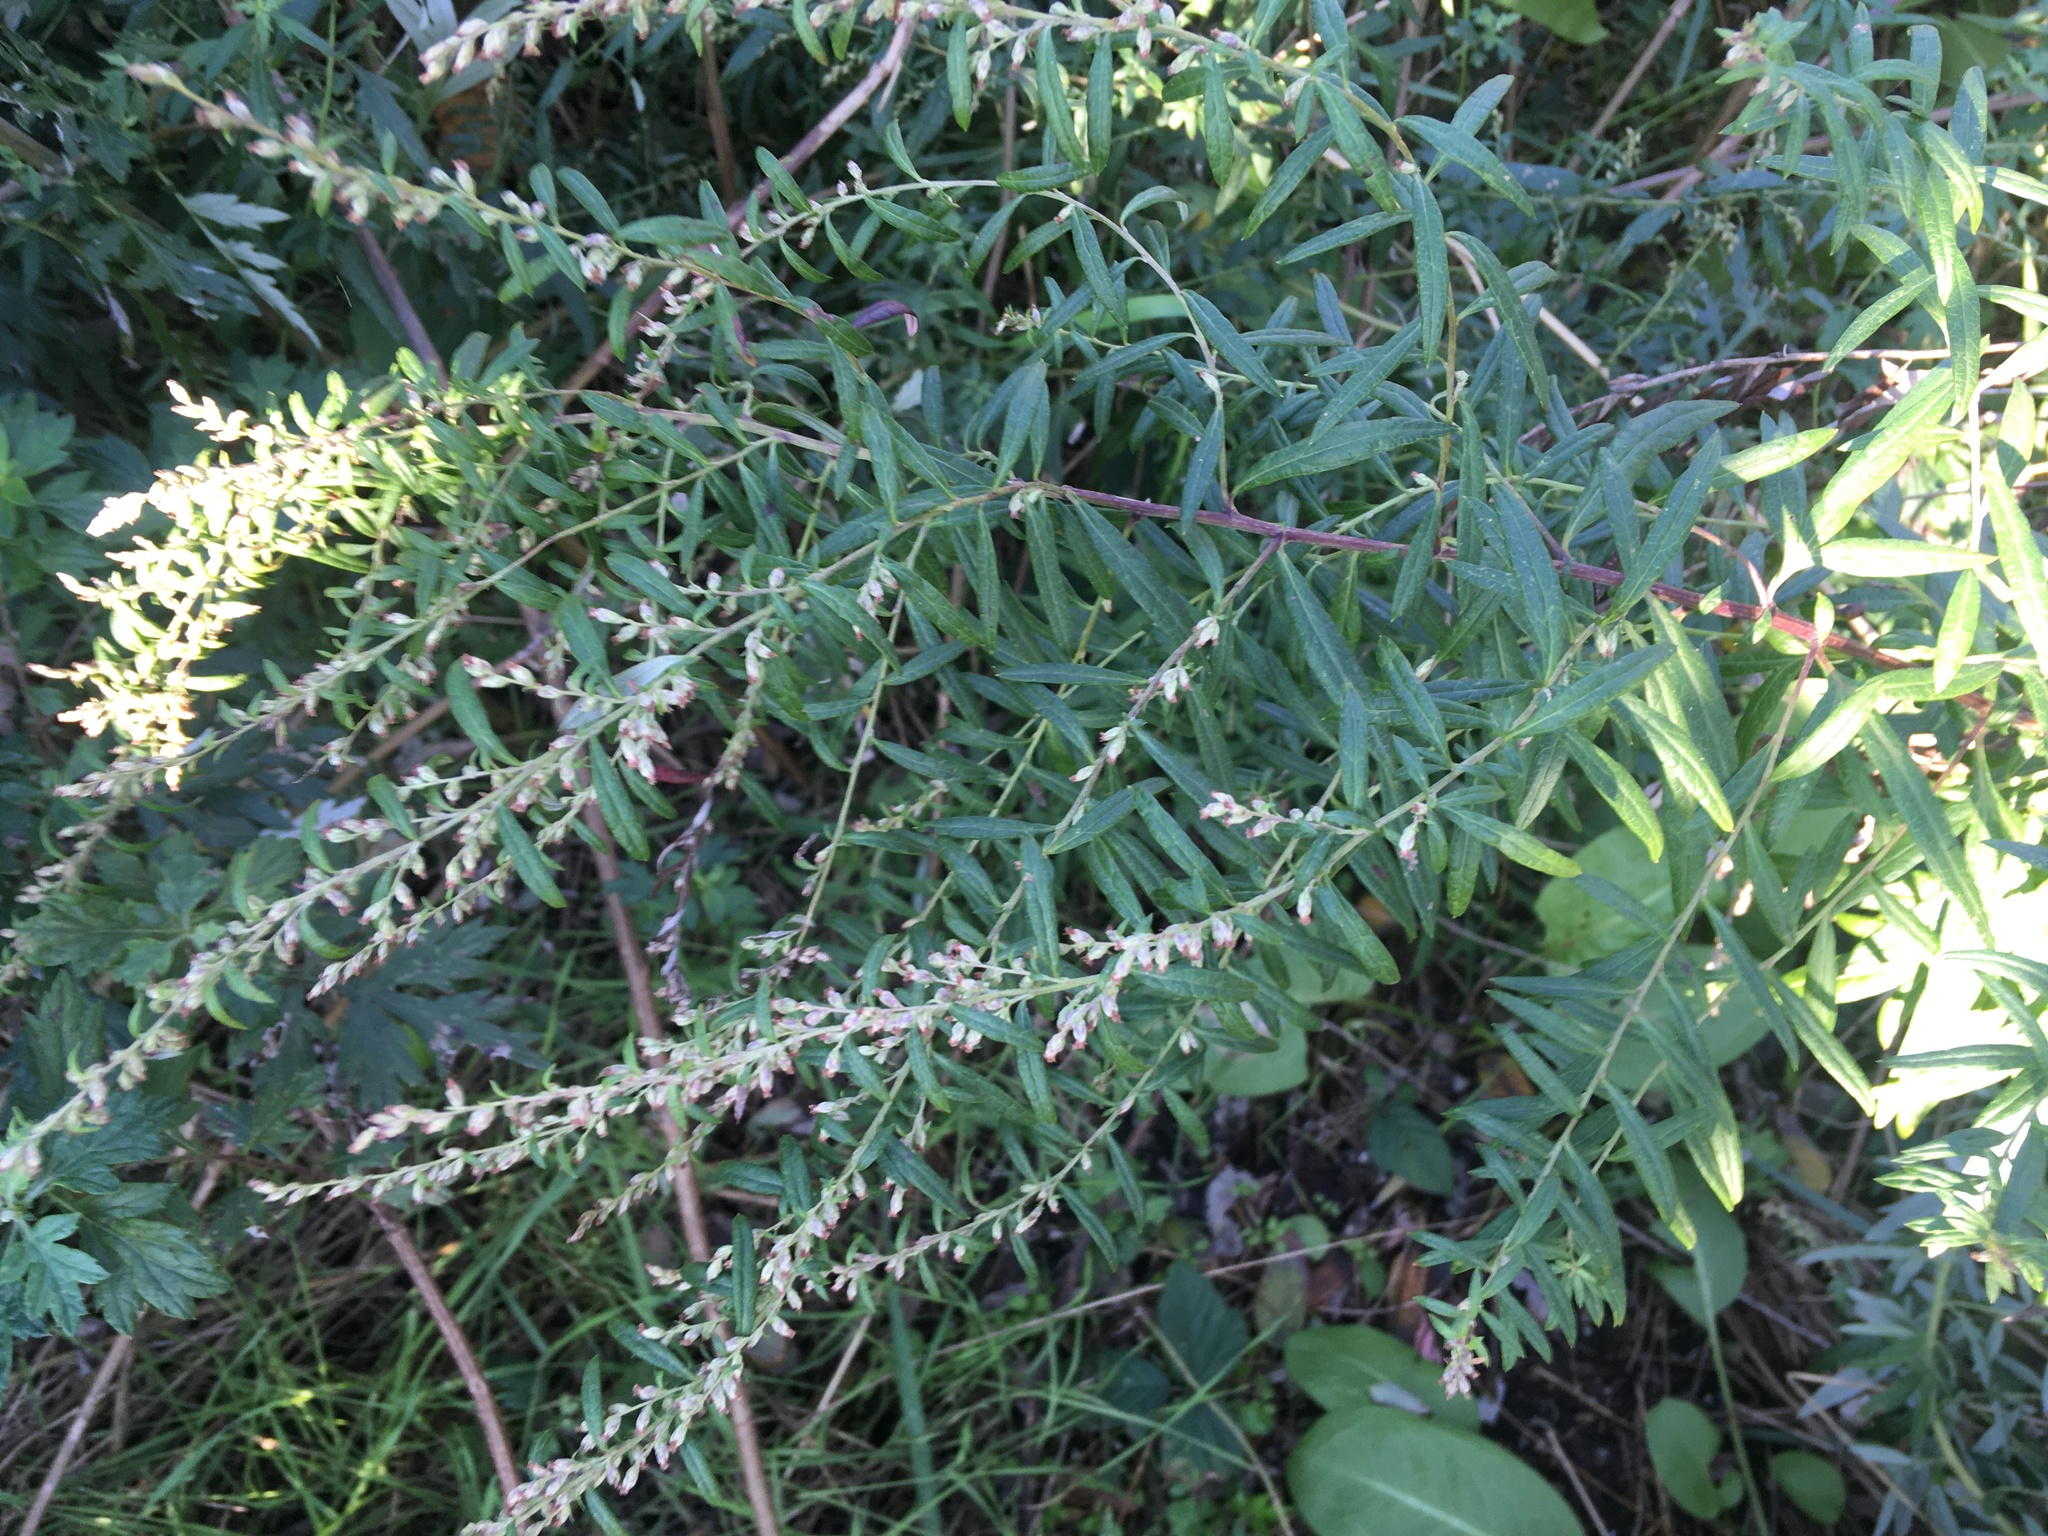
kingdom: Plantae
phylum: Tracheophyta
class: Magnoliopsida
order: Asterales
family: Asteraceae
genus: Artemisia
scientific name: Artemisia vulgaris
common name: Mugwort
